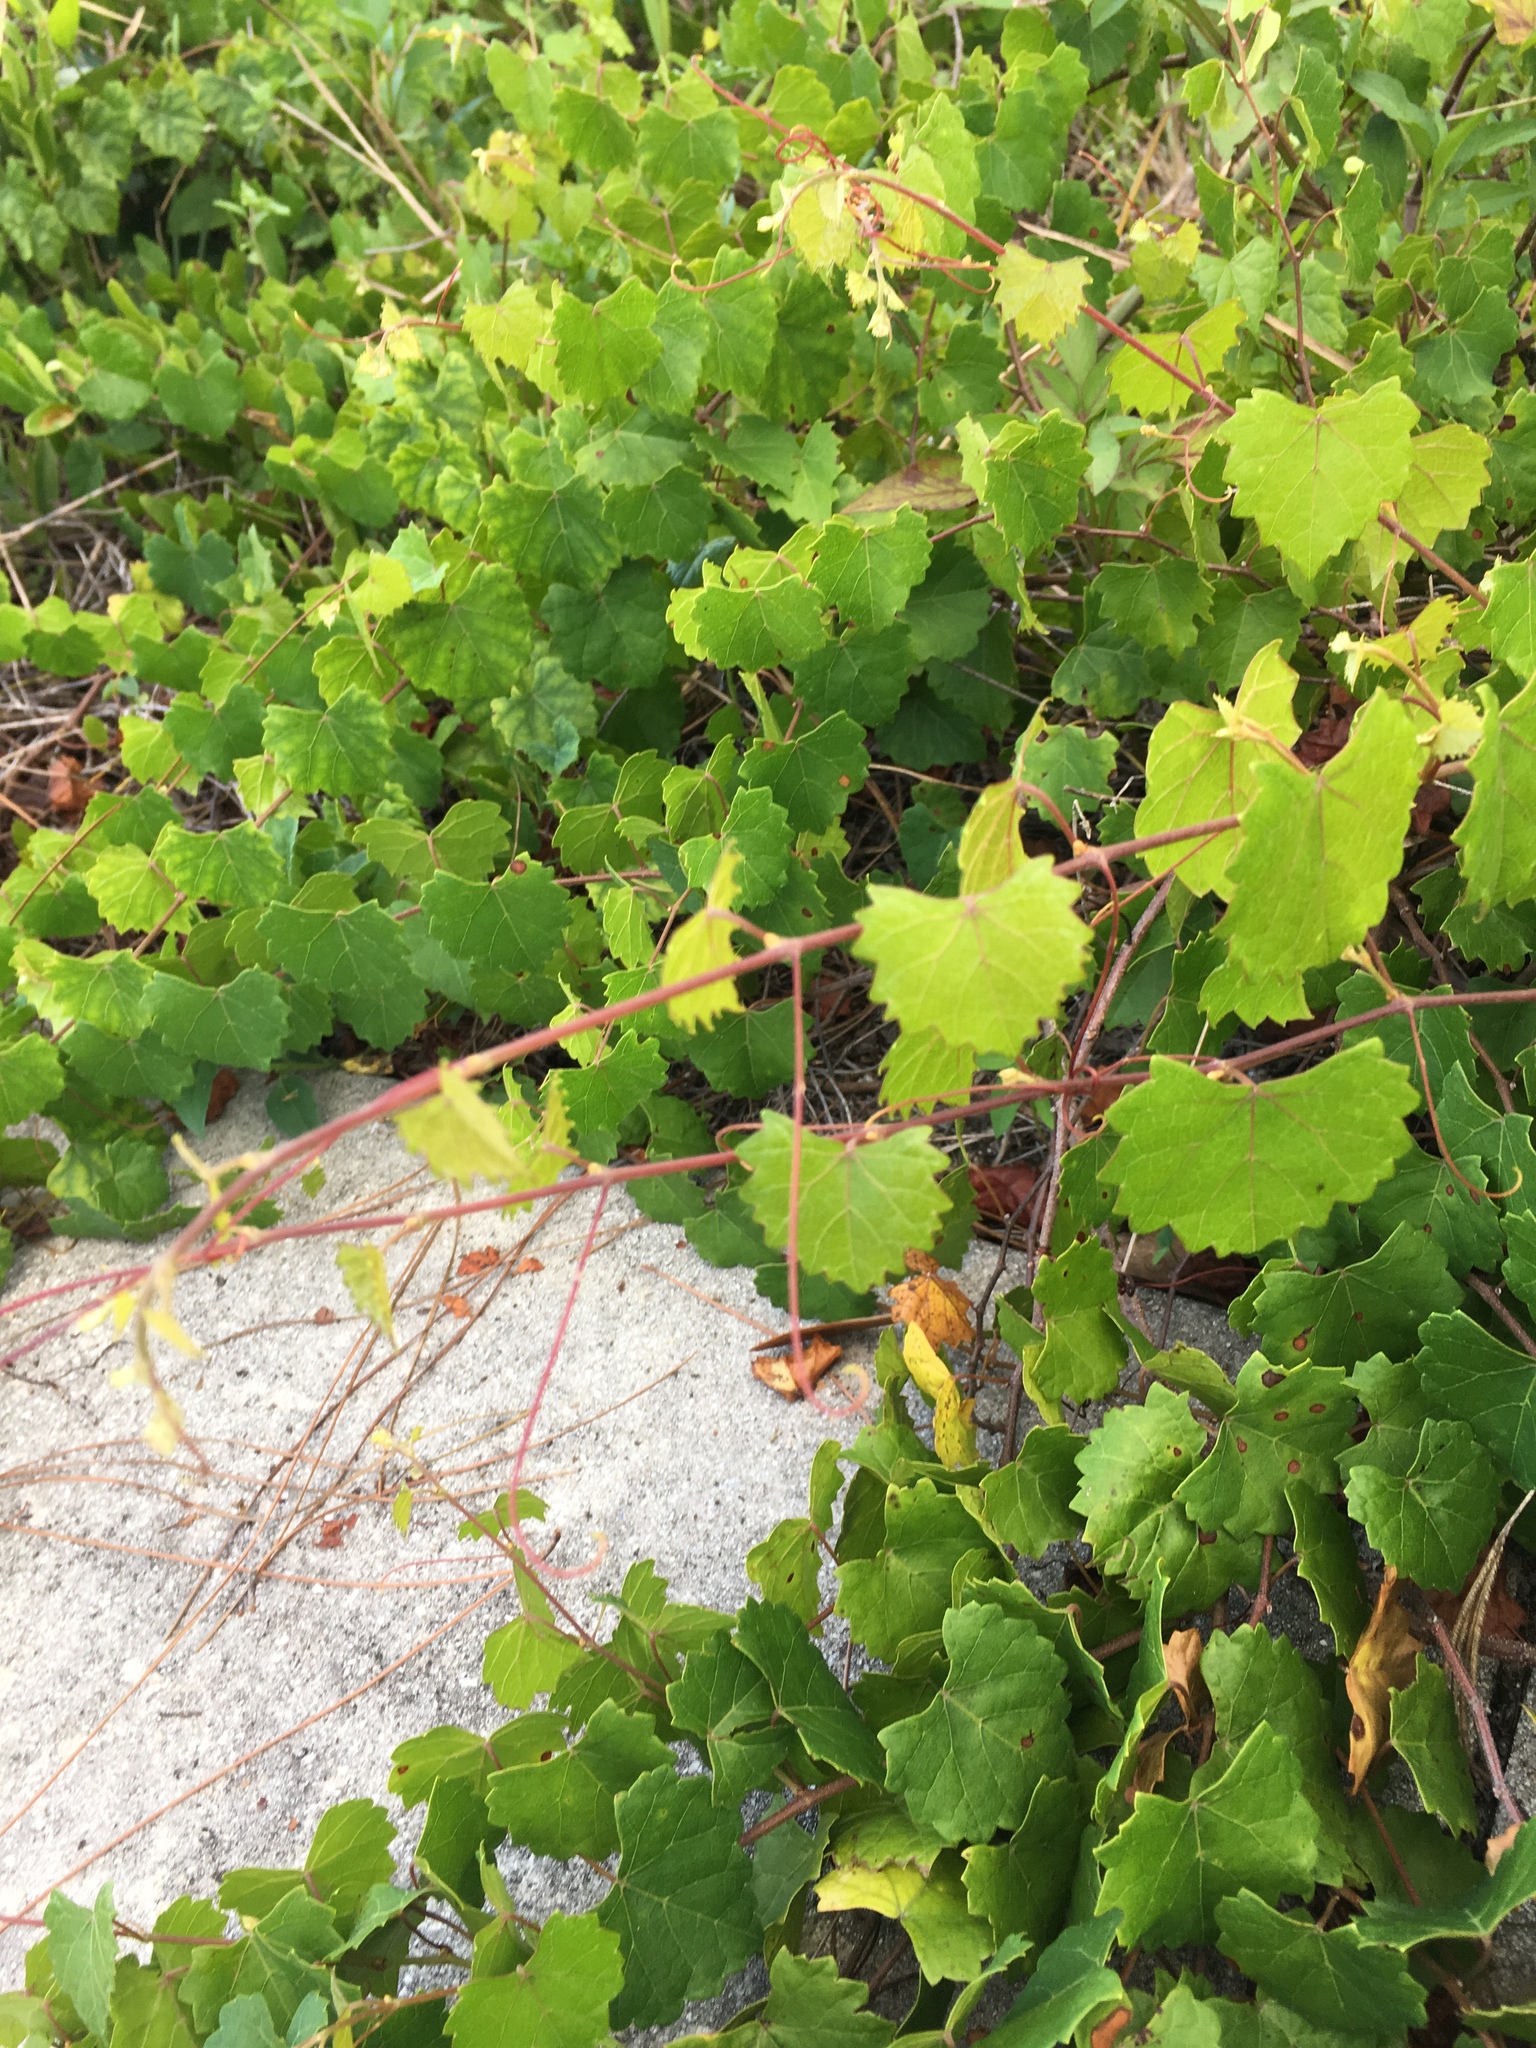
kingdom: Plantae
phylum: Tracheophyta
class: Magnoliopsida
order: Vitales
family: Vitaceae
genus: Vitis
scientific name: Vitis rotundifolia
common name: Muscadine grape
